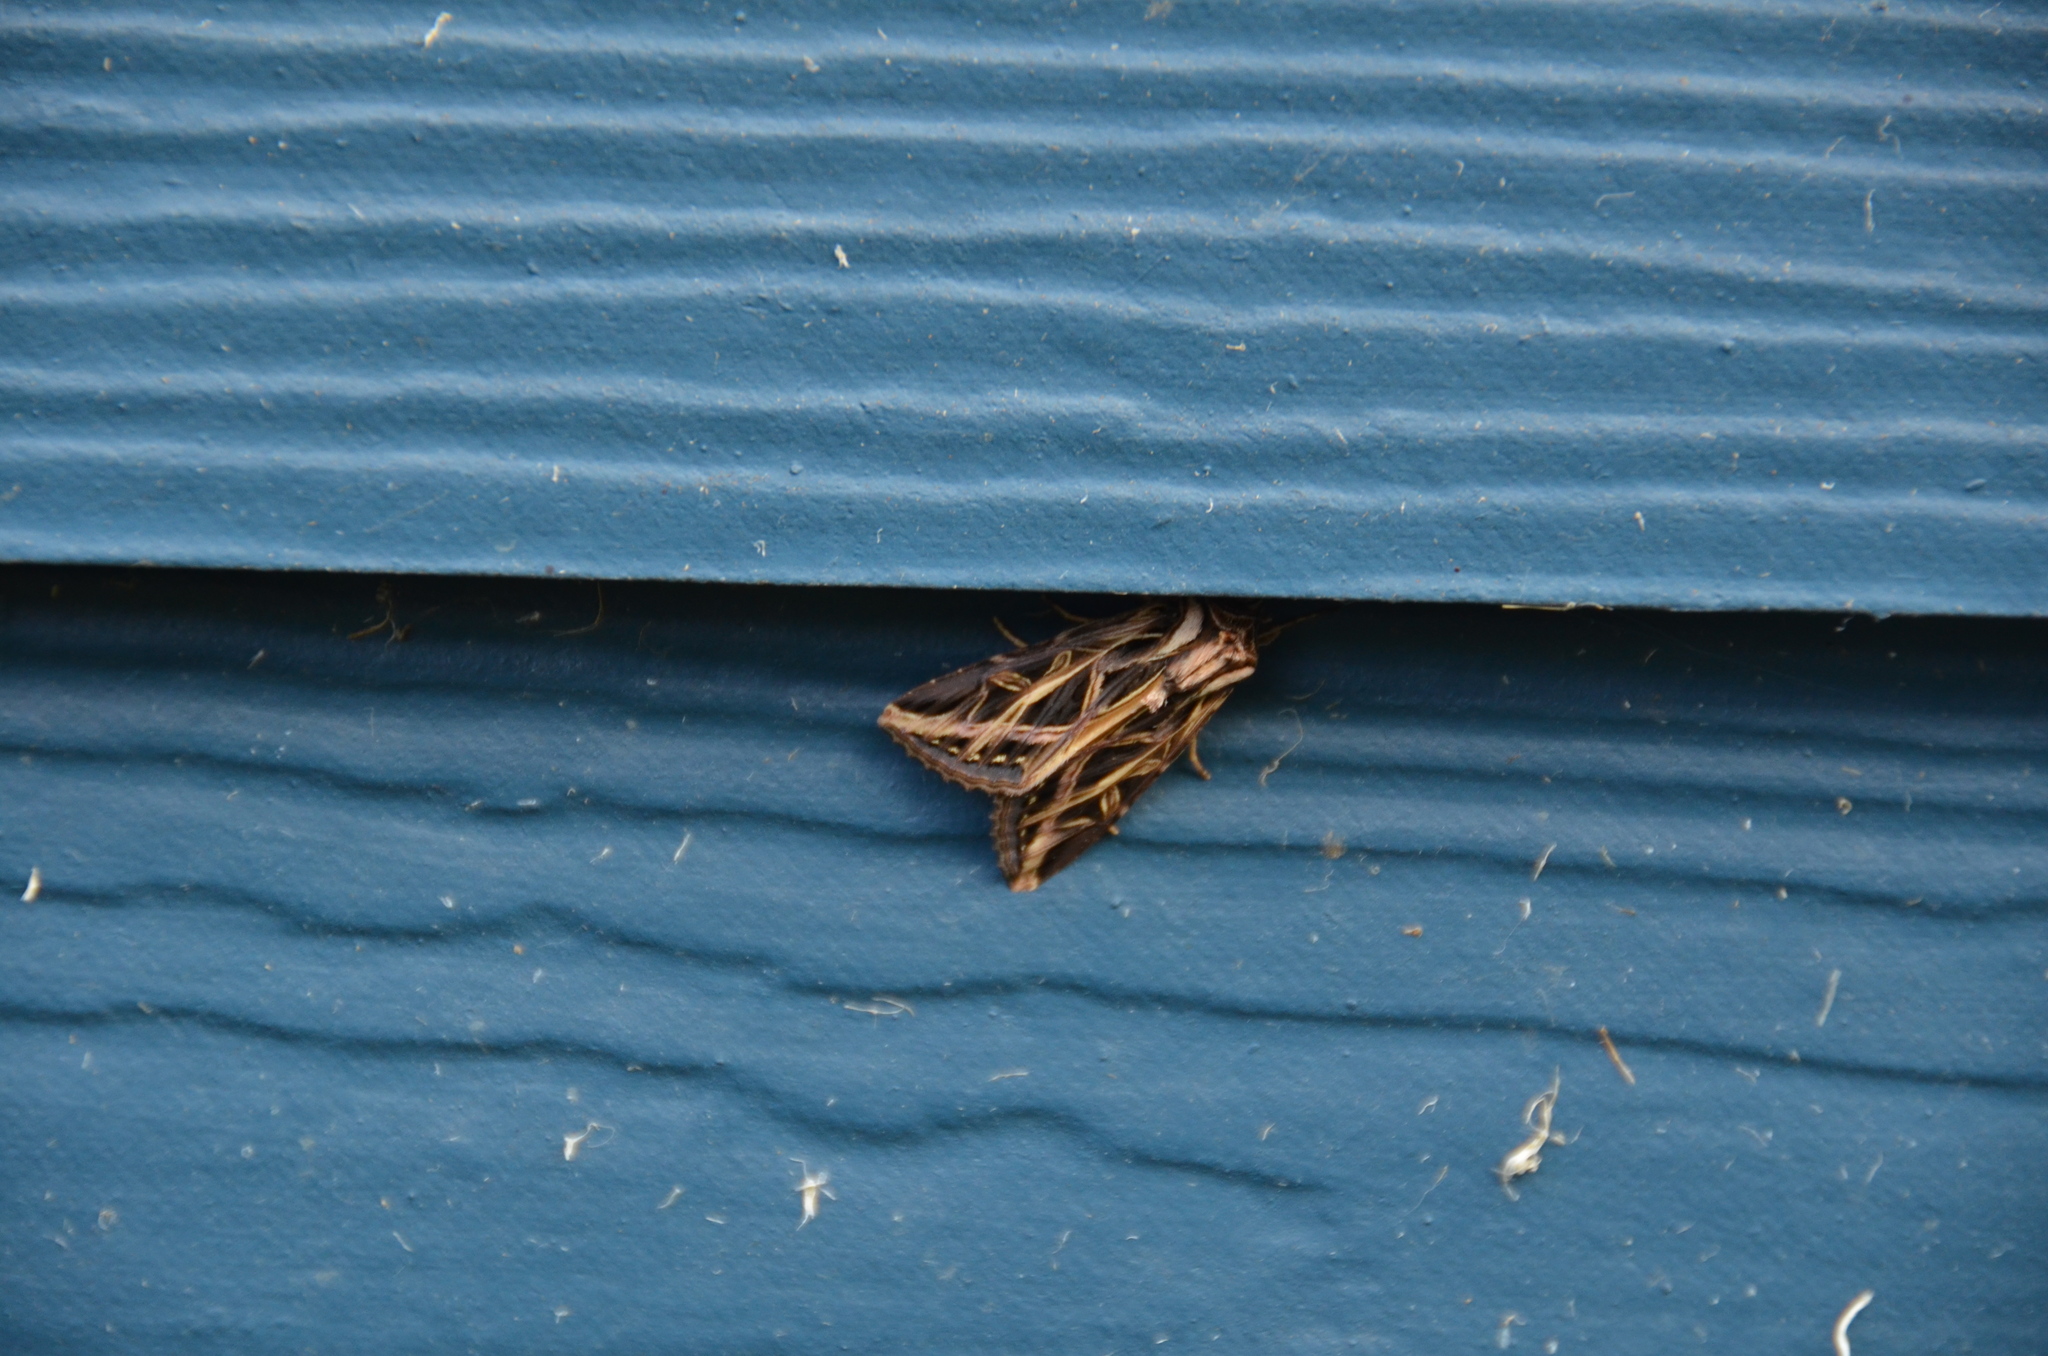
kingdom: Animalia
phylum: Arthropoda
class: Insecta
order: Lepidoptera
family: Noctuidae
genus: Dargida
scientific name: Dargida procinctus
